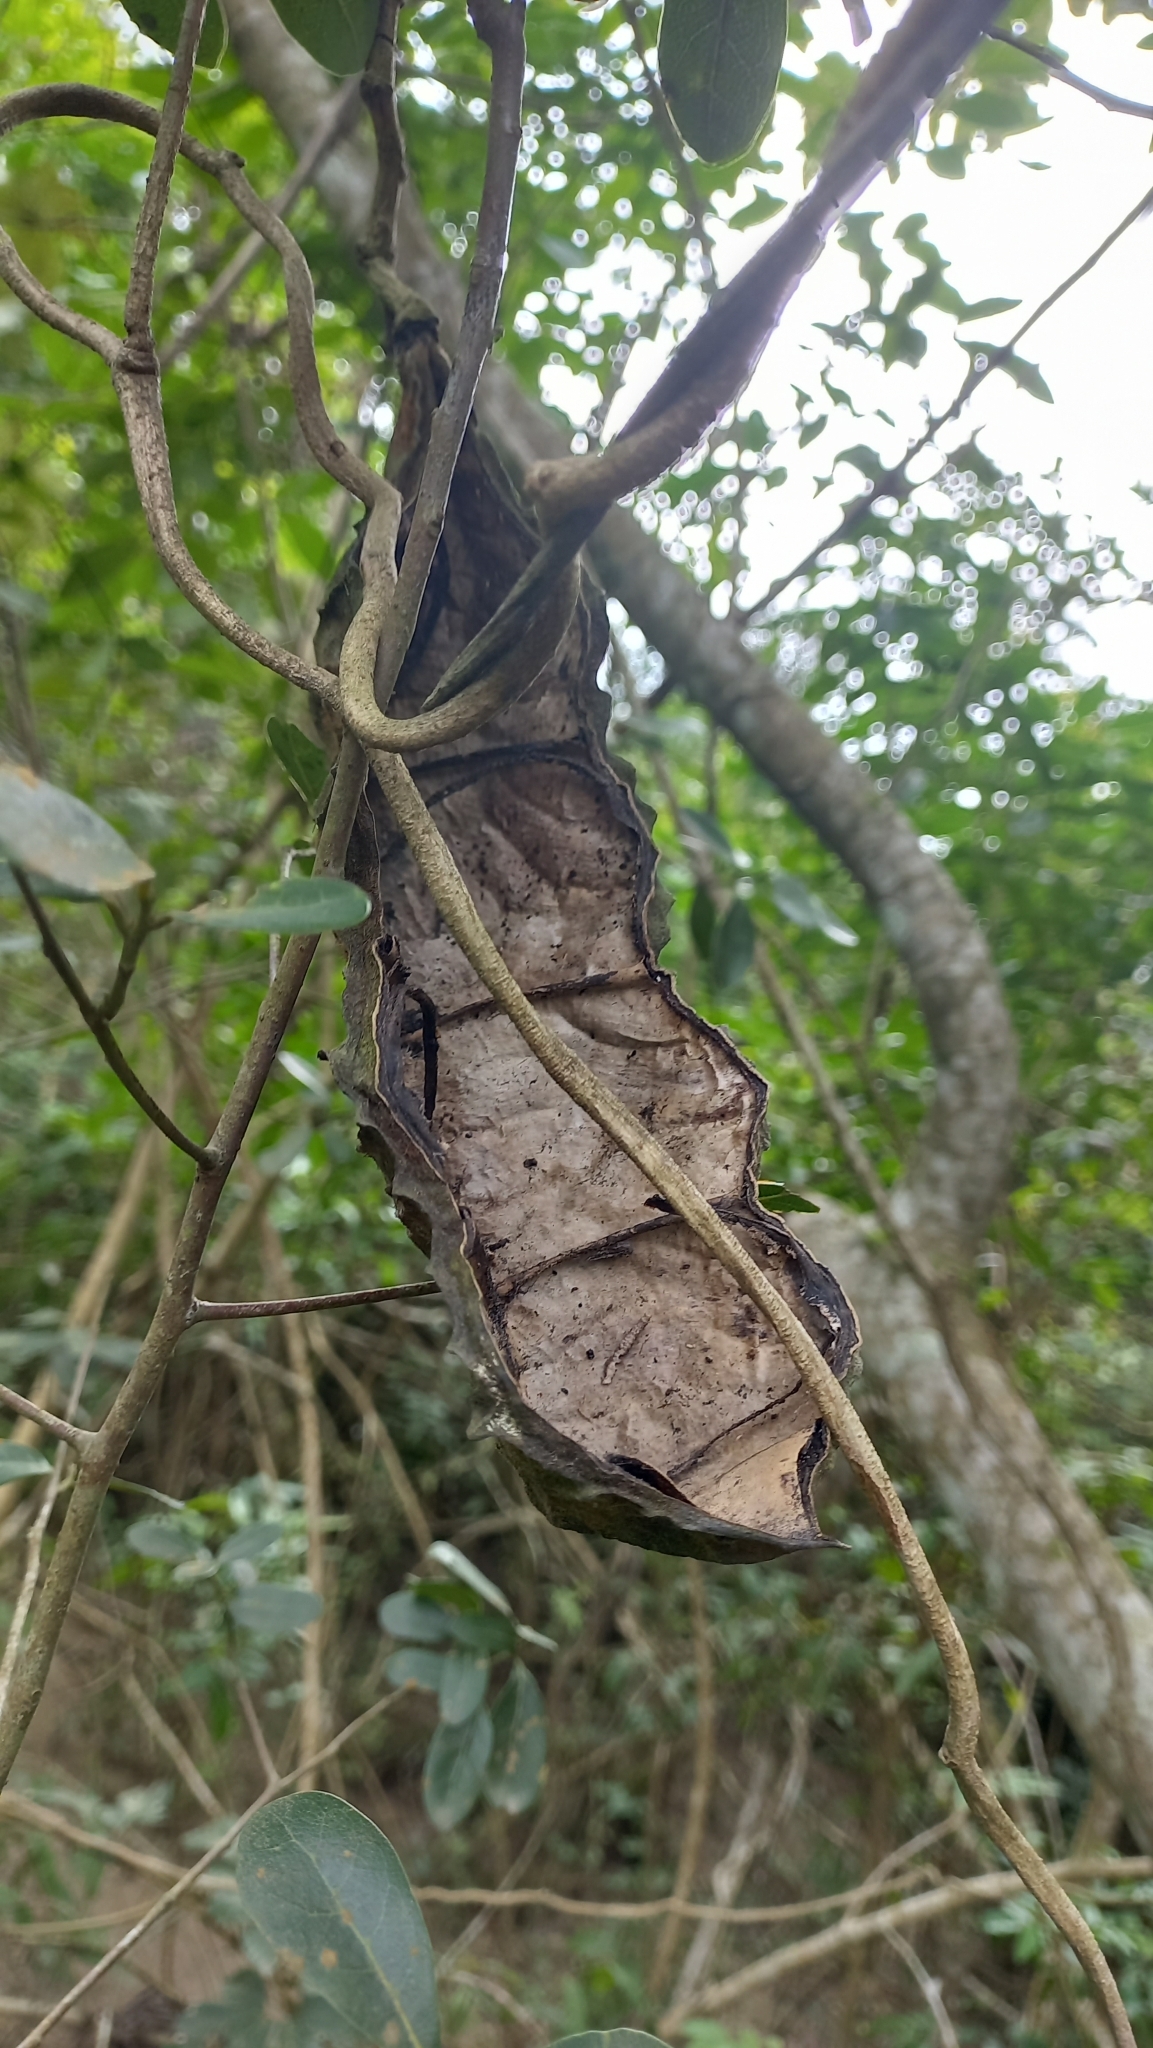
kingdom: Plantae
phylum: Tracheophyta
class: Magnoliopsida
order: Fabales
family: Fabaceae
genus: Mucuna
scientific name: Mucuna urens
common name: Red hamburger bean
